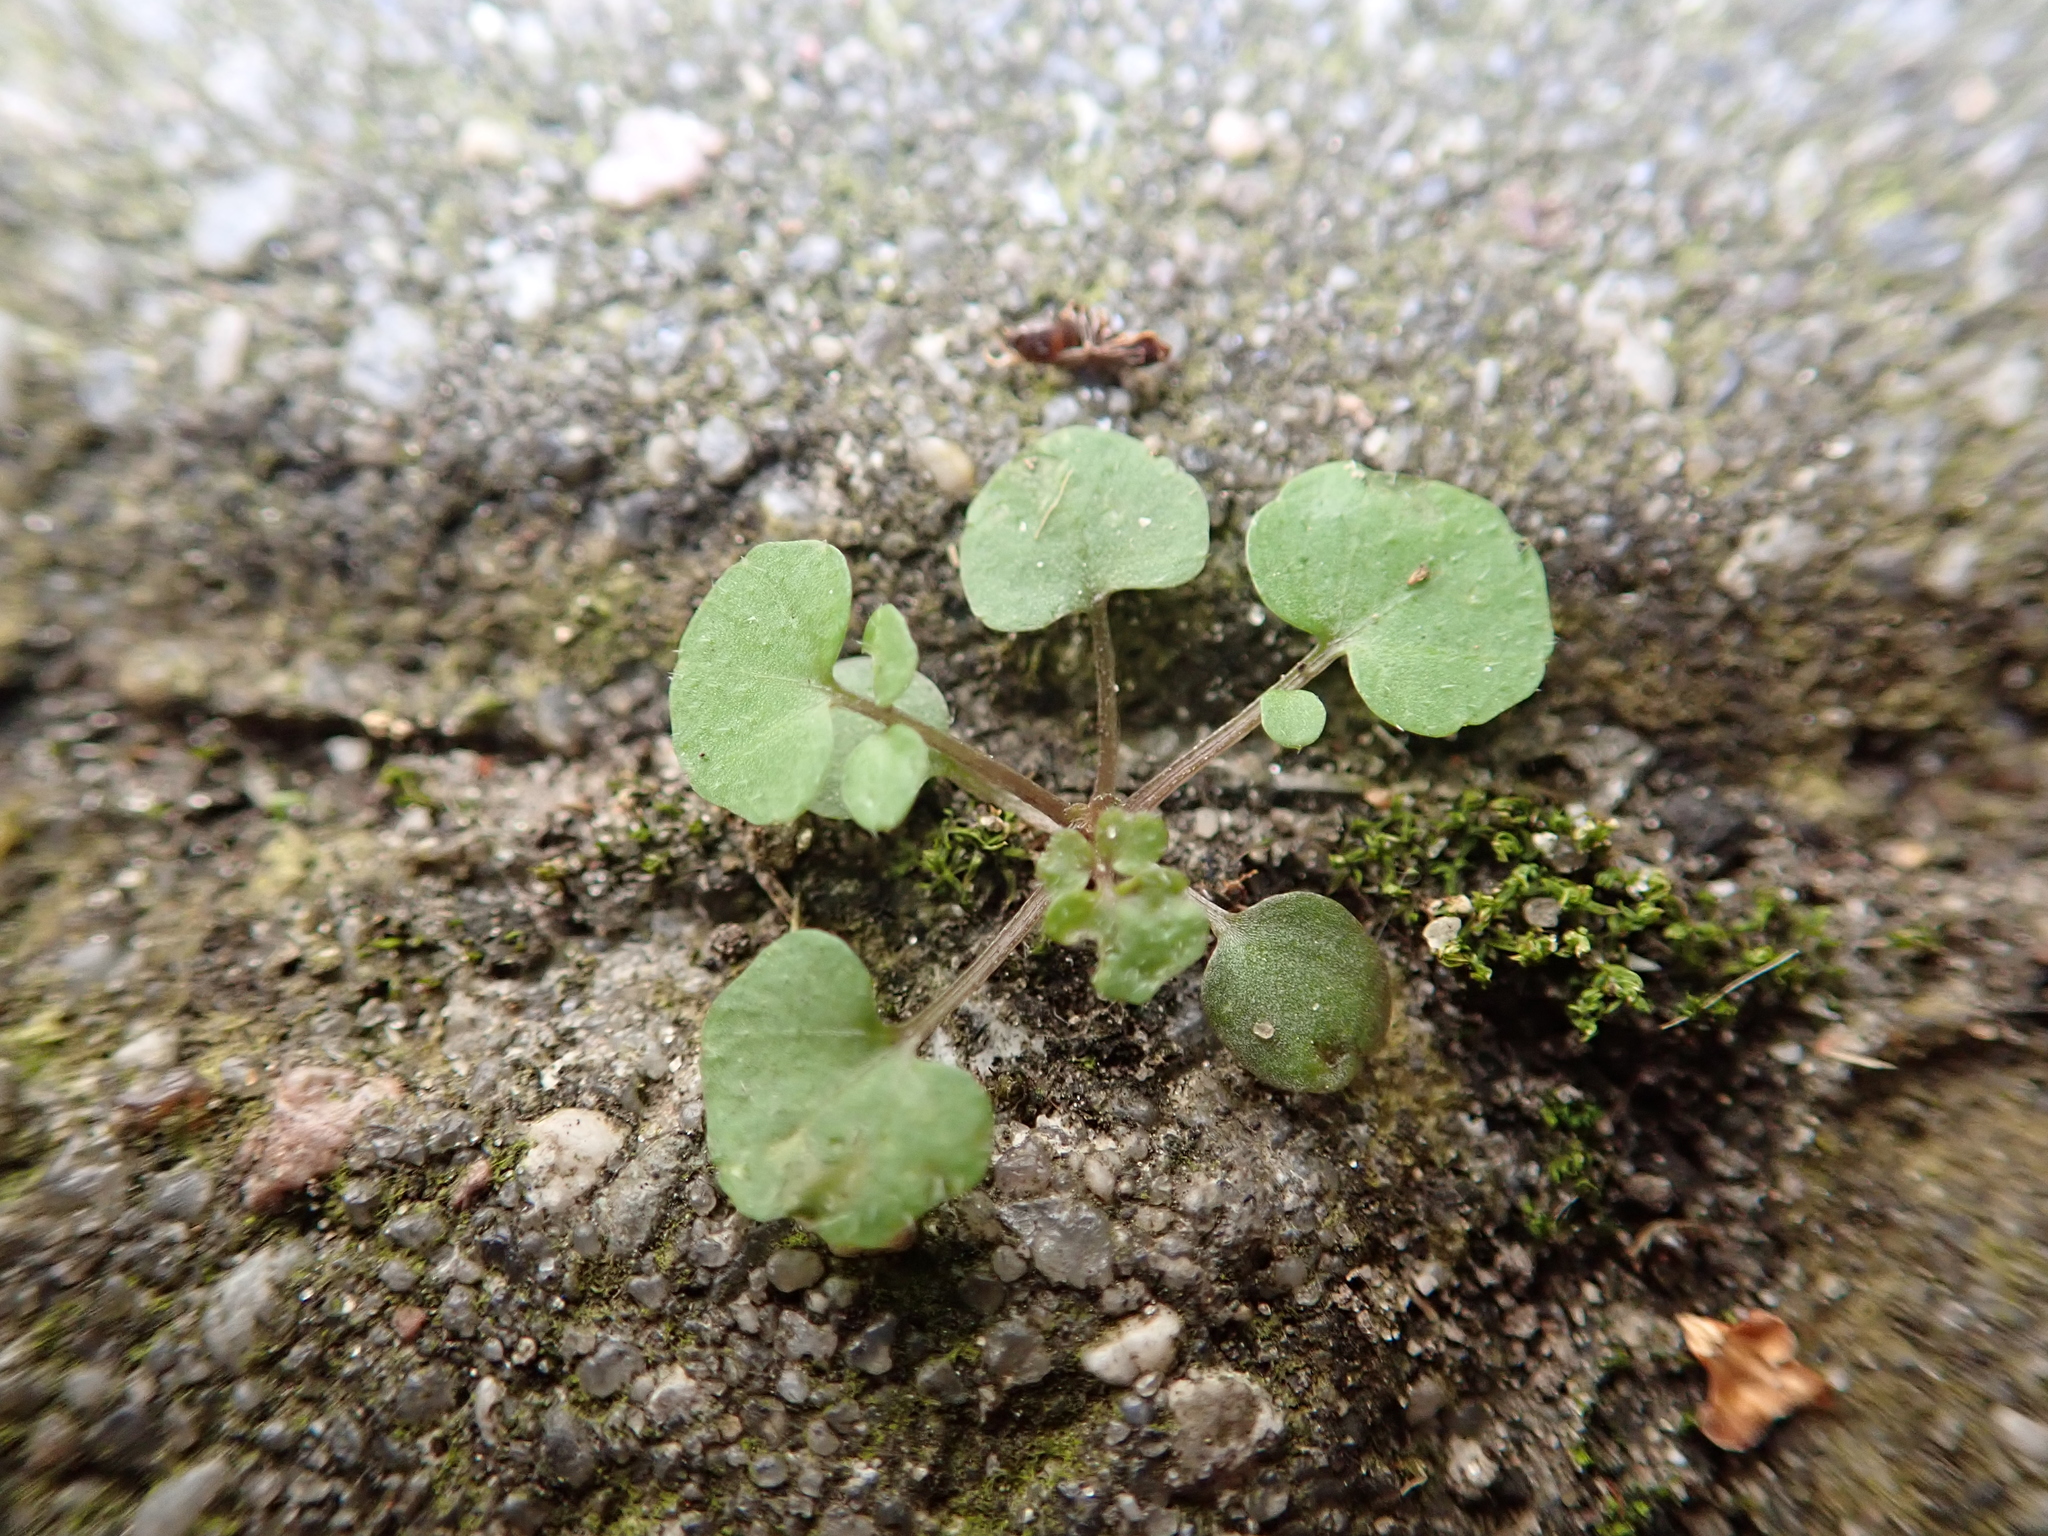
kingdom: Plantae
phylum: Tracheophyta
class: Magnoliopsida
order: Brassicales
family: Brassicaceae
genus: Cardamine
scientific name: Cardamine hirsuta
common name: Hairy bittercress
